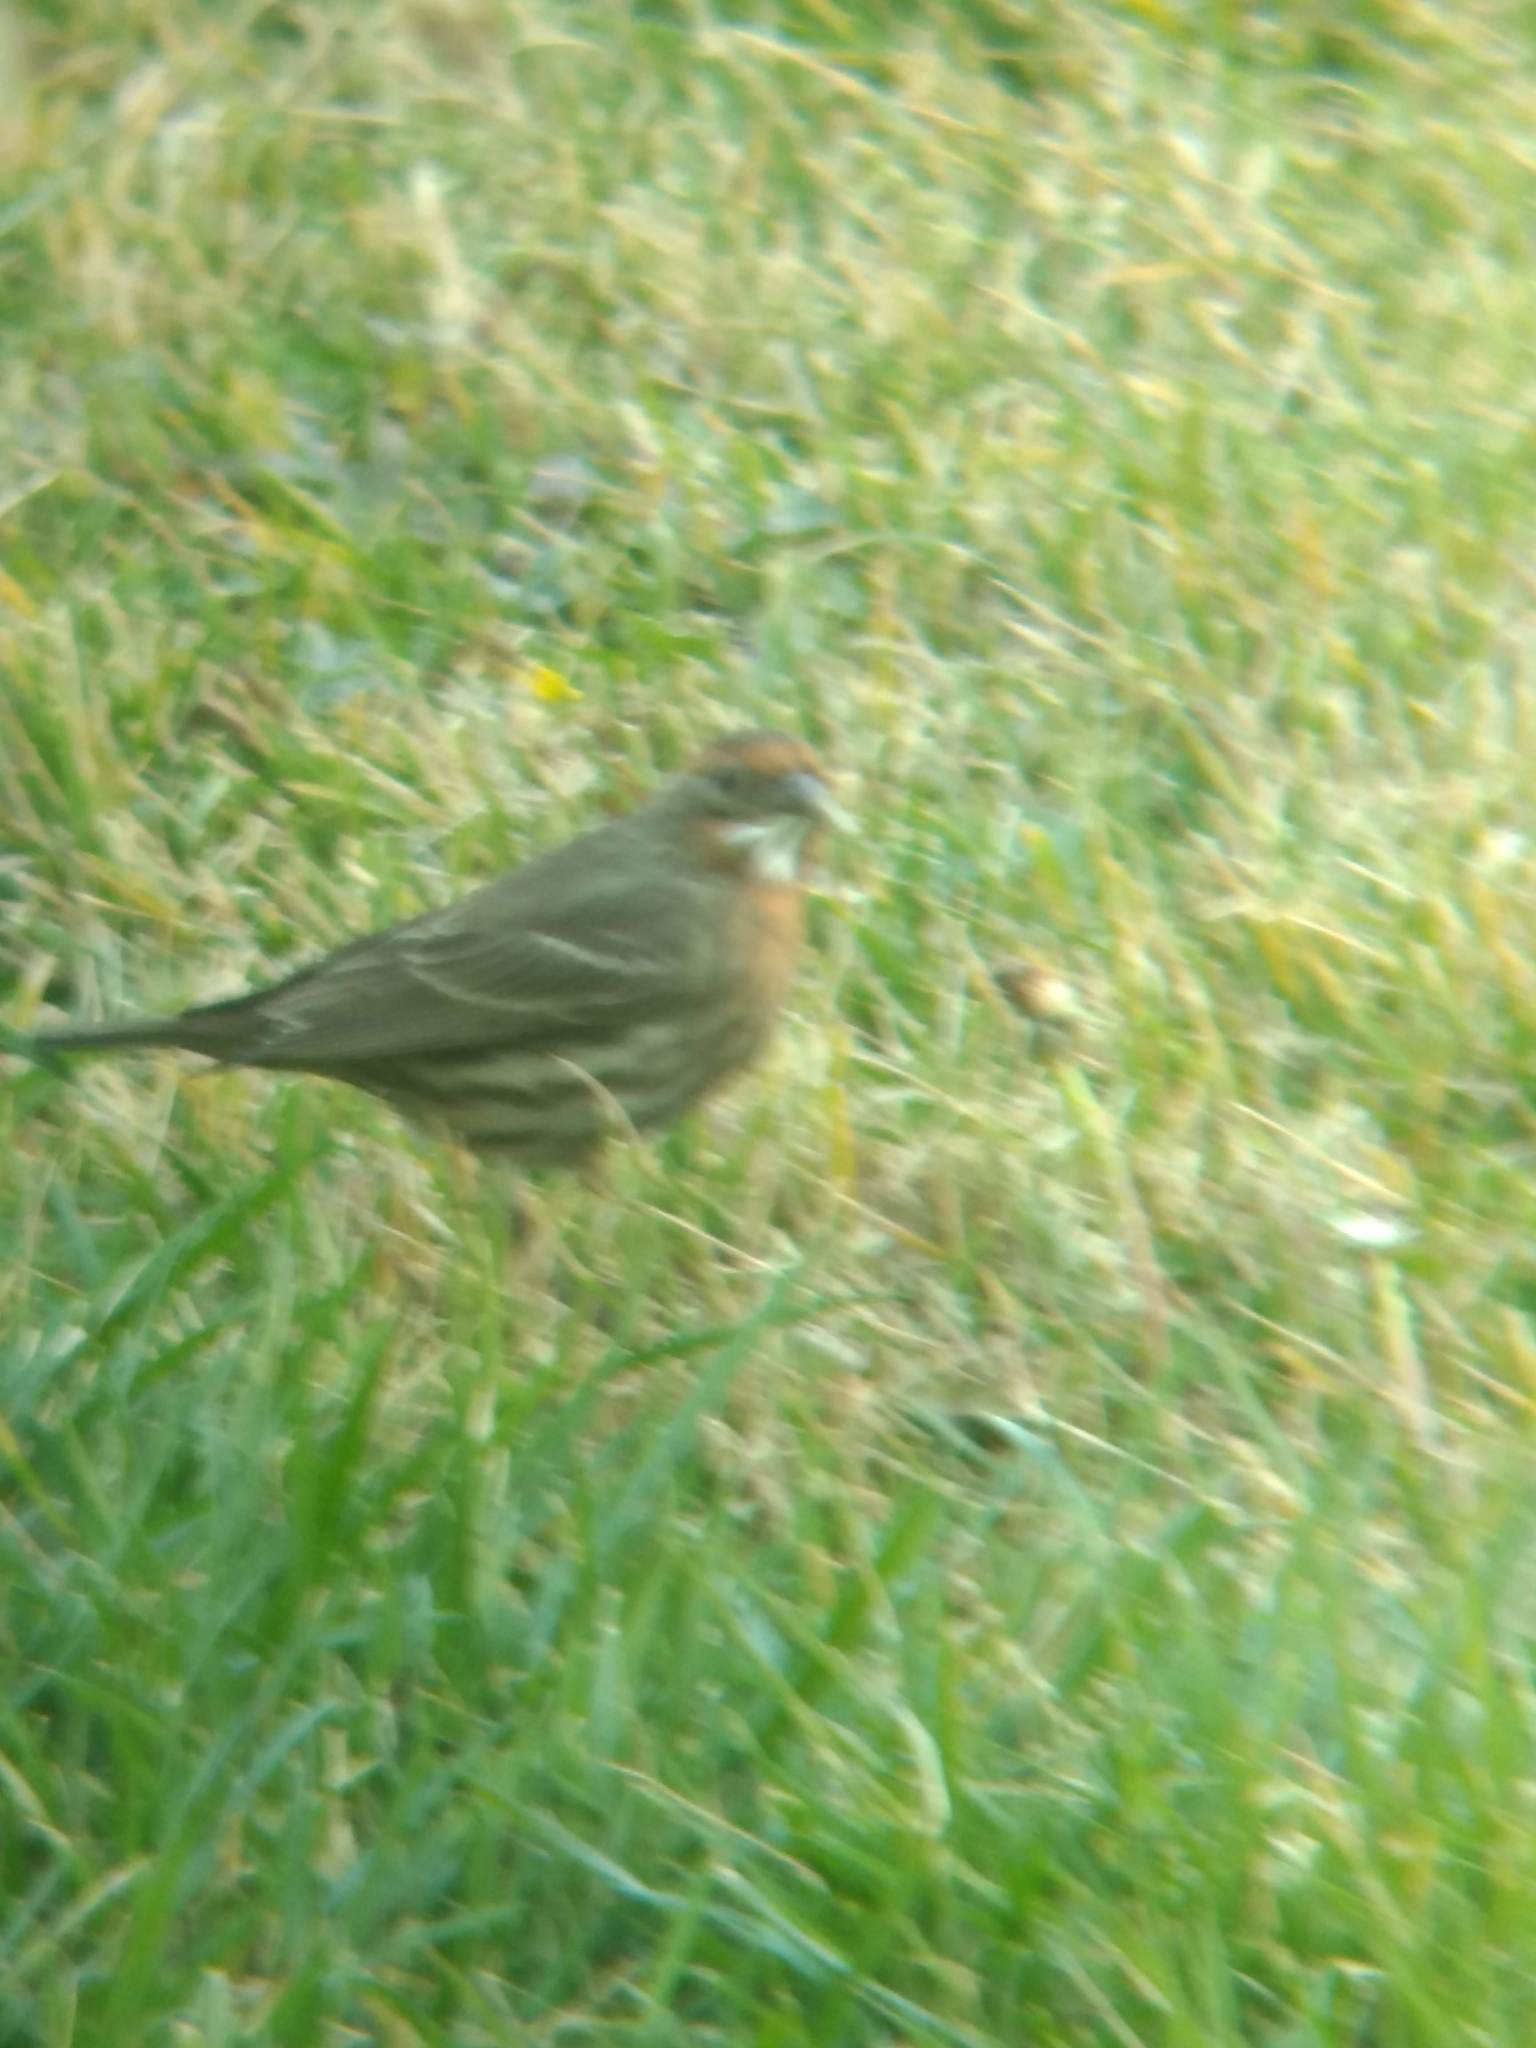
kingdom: Animalia
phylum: Chordata
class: Aves
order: Passeriformes
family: Fringillidae
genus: Haemorhous
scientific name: Haemorhous mexicanus
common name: House finch
